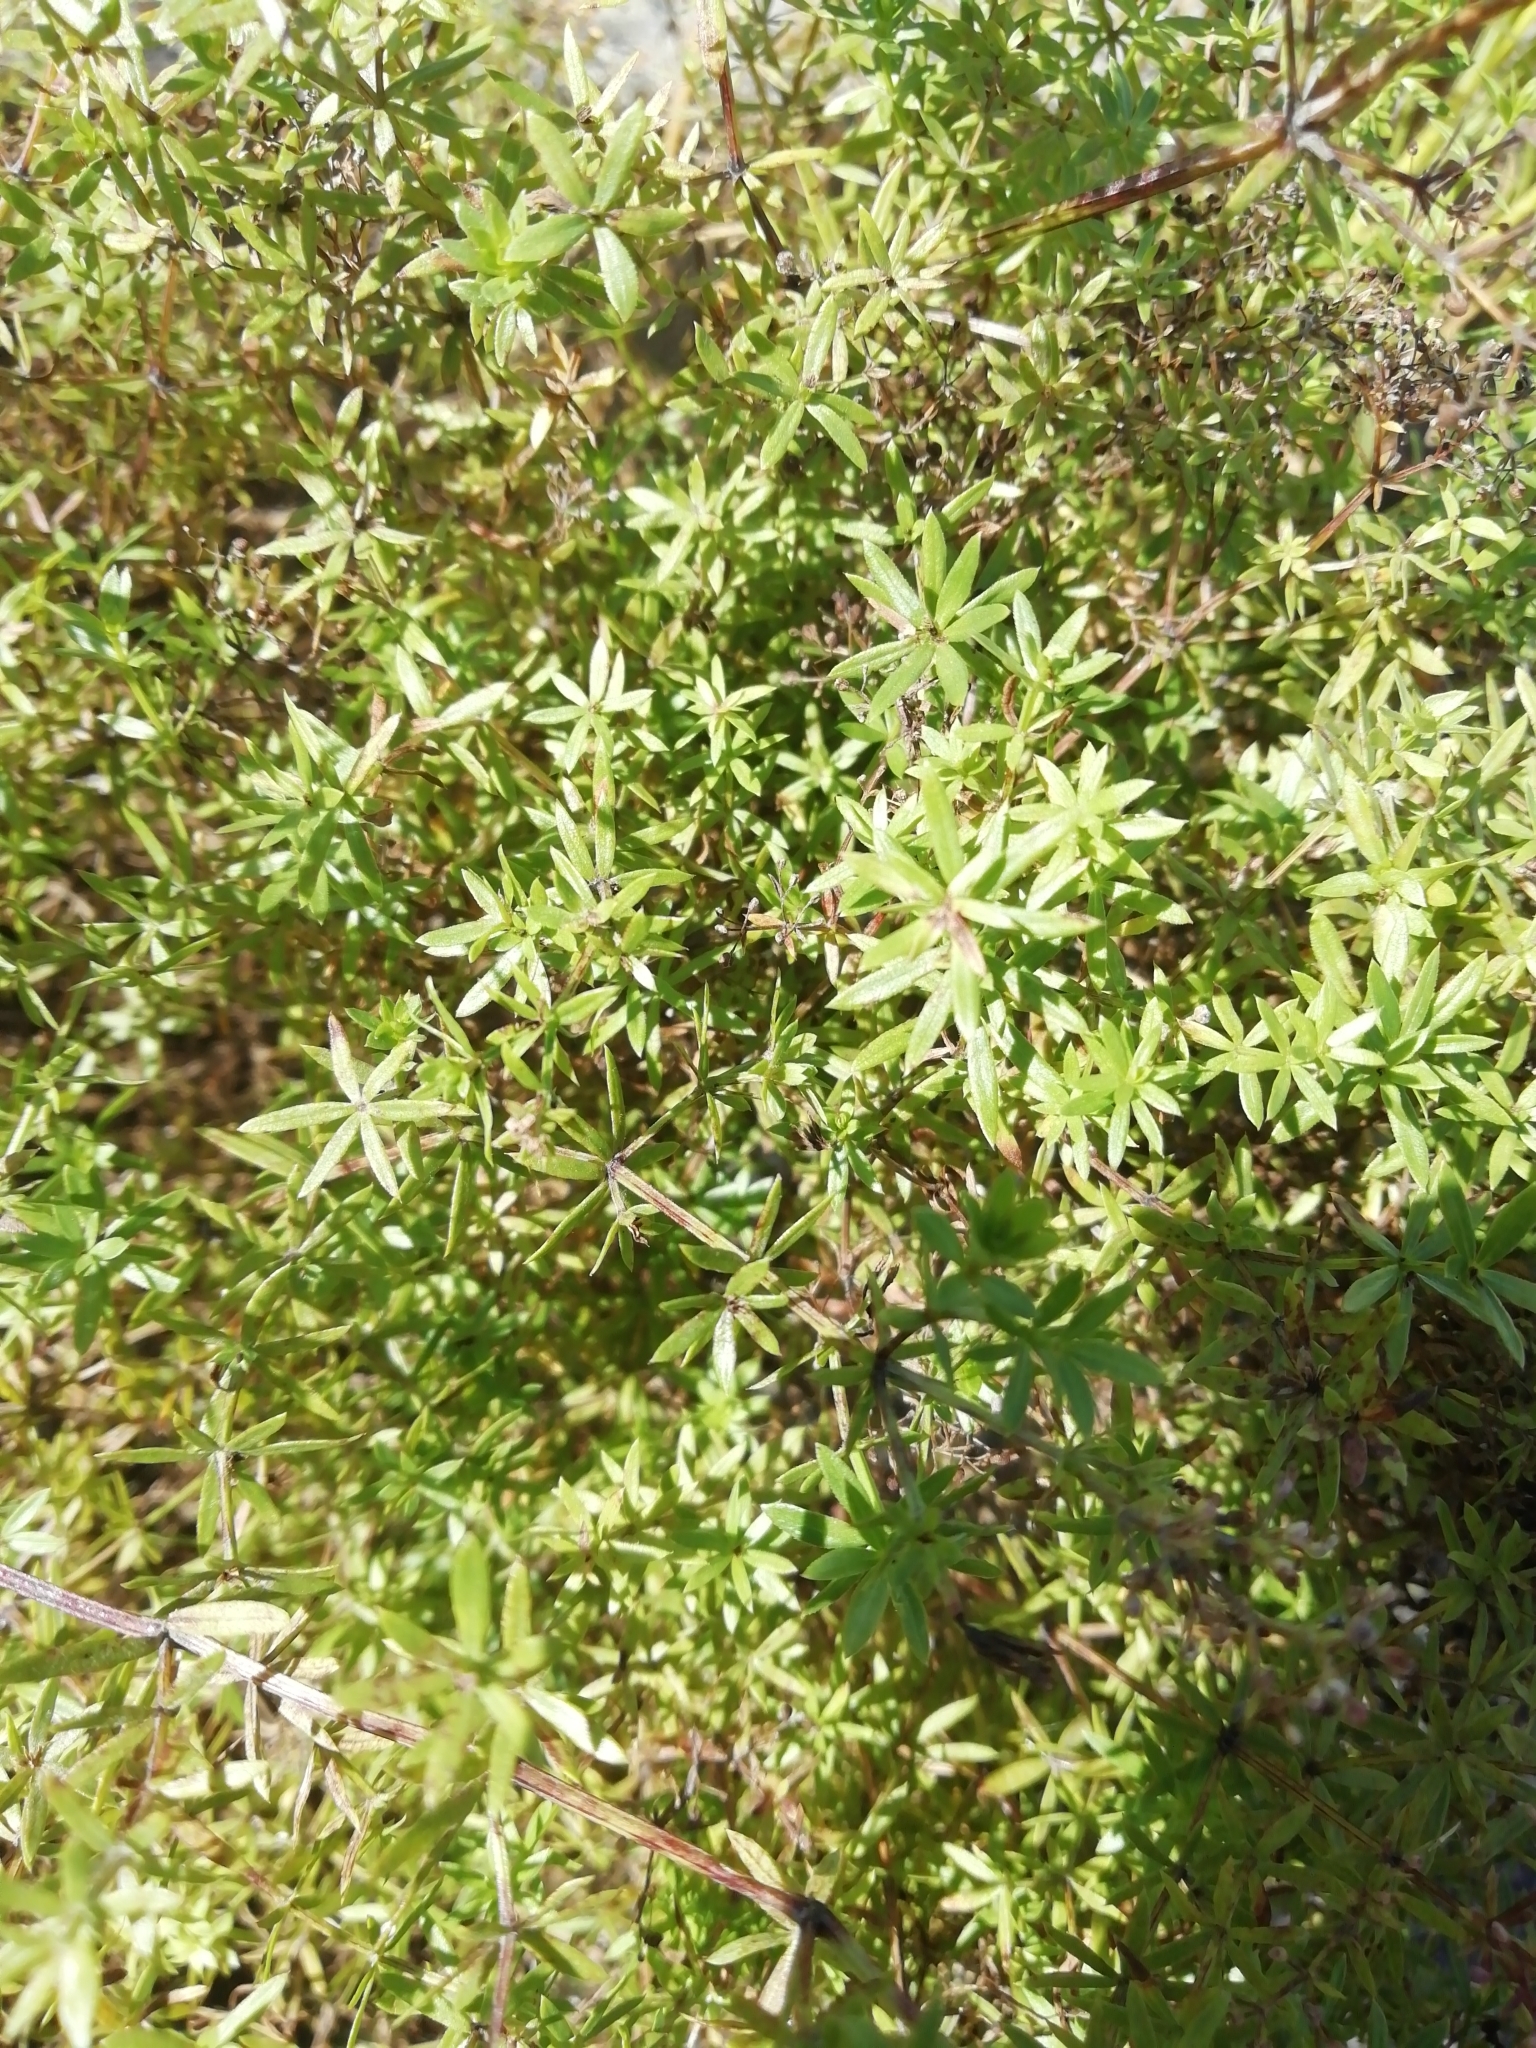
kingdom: Plantae
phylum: Tracheophyta
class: Magnoliopsida
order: Gentianales
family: Rubiaceae
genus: Galium
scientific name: Galium mollugo
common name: Hedge bedstraw
